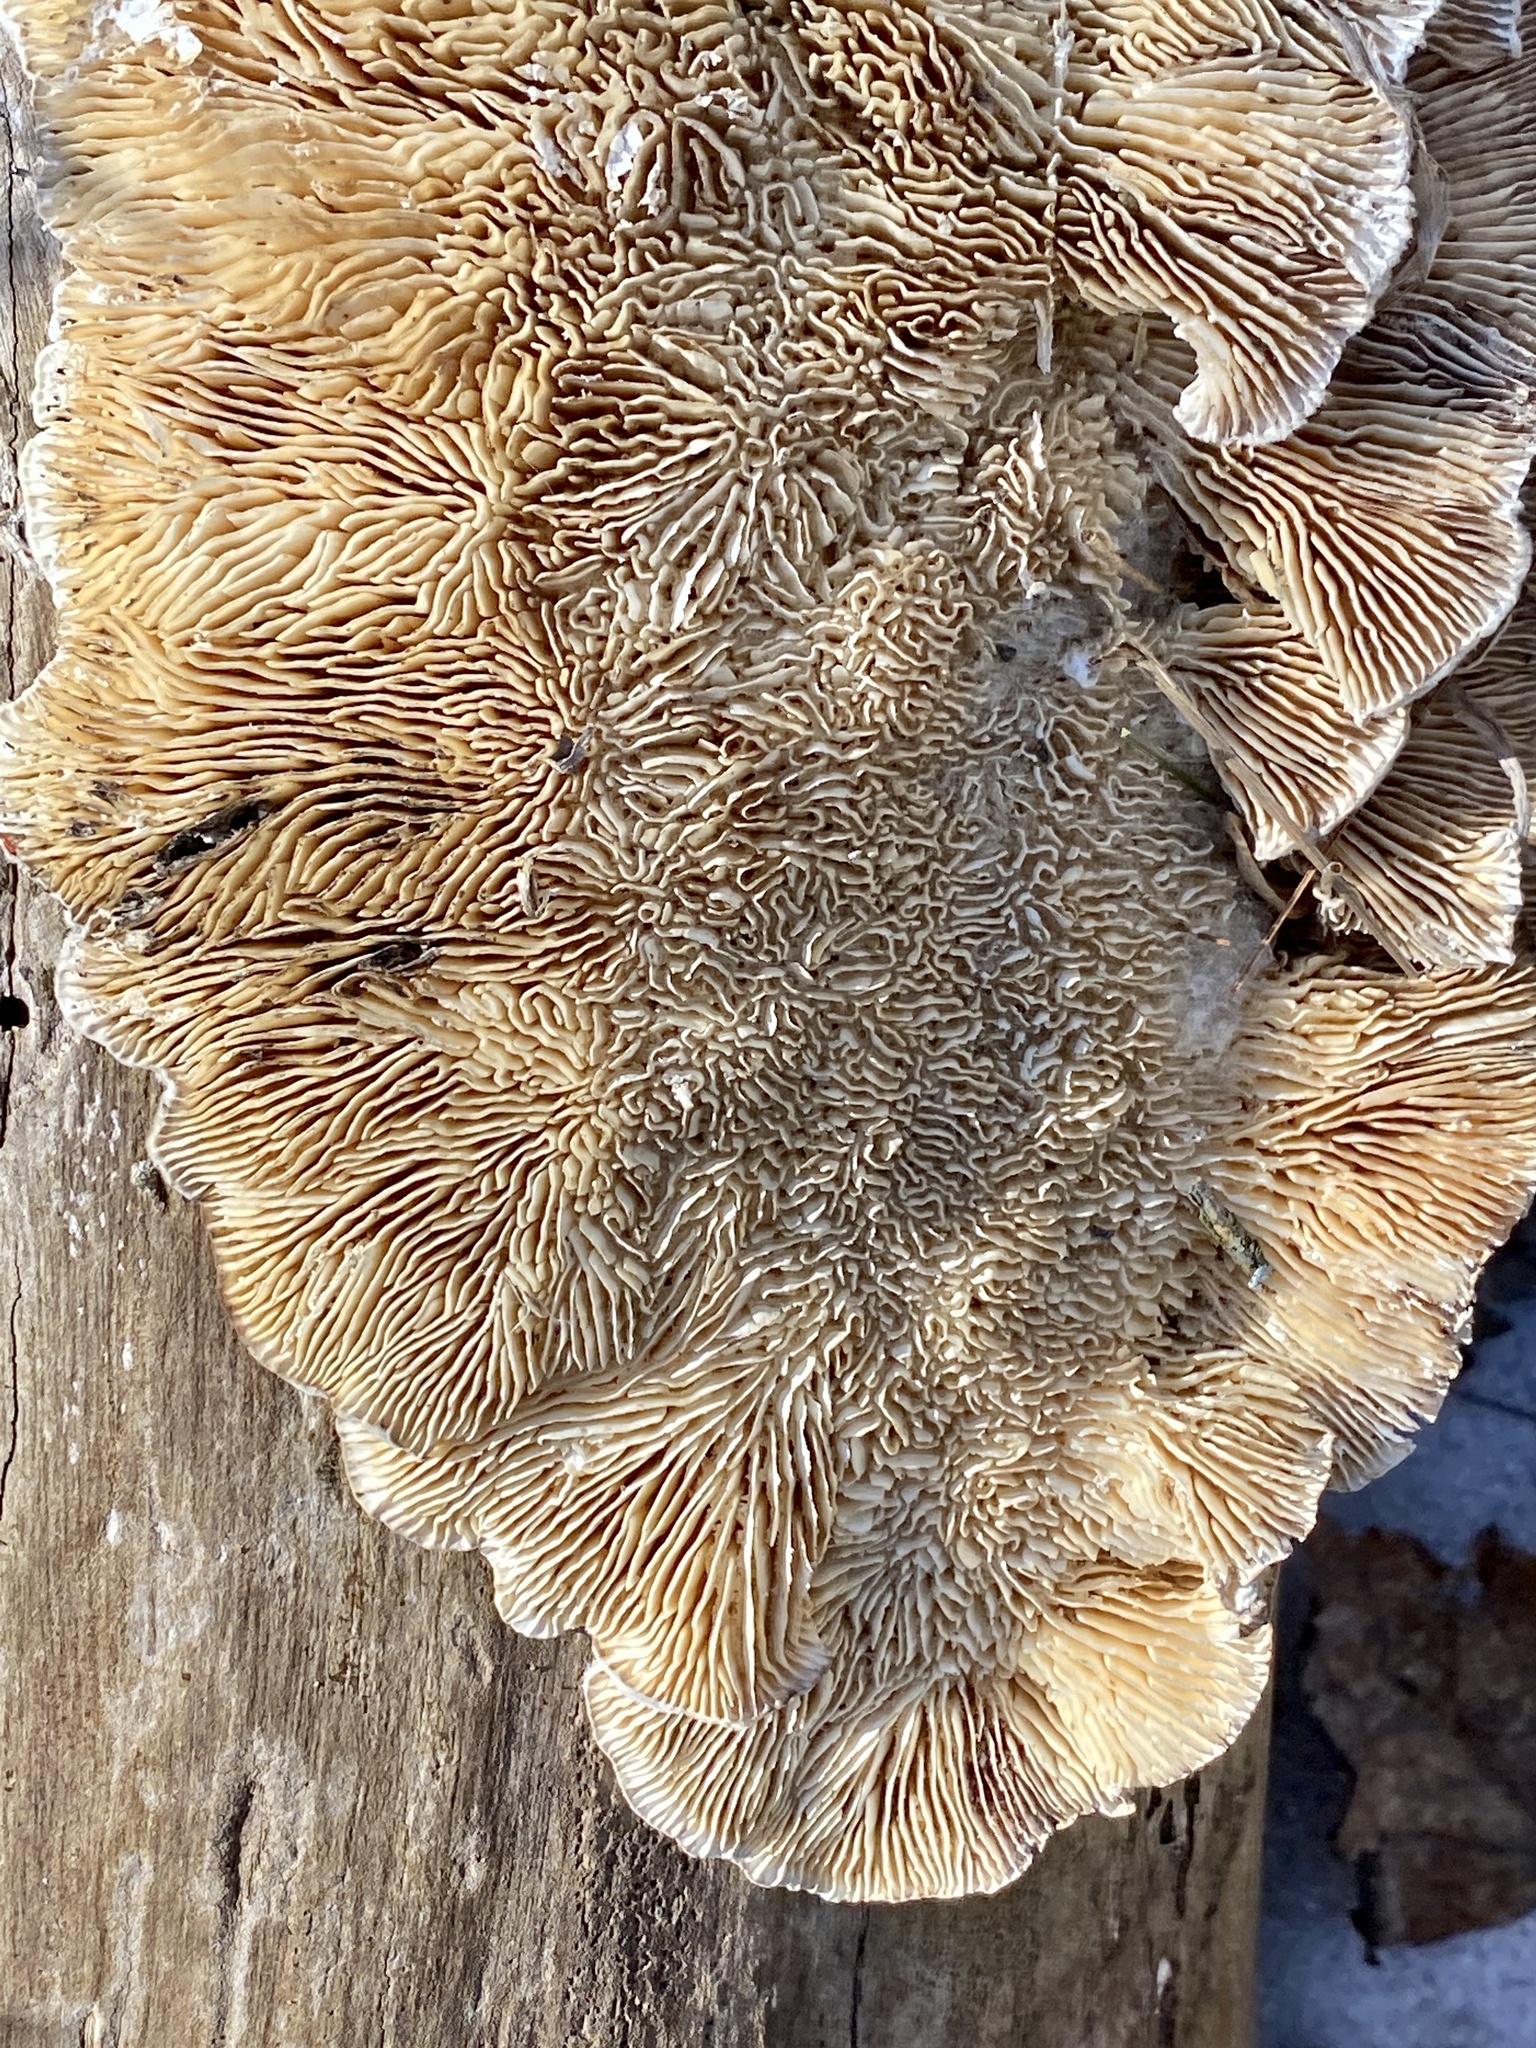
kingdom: Fungi
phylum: Basidiomycota
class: Agaricomycetes
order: Polyporales
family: Polyporaceae
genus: Lenzites
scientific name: Lenzites betulinus
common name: Birch mazegill
